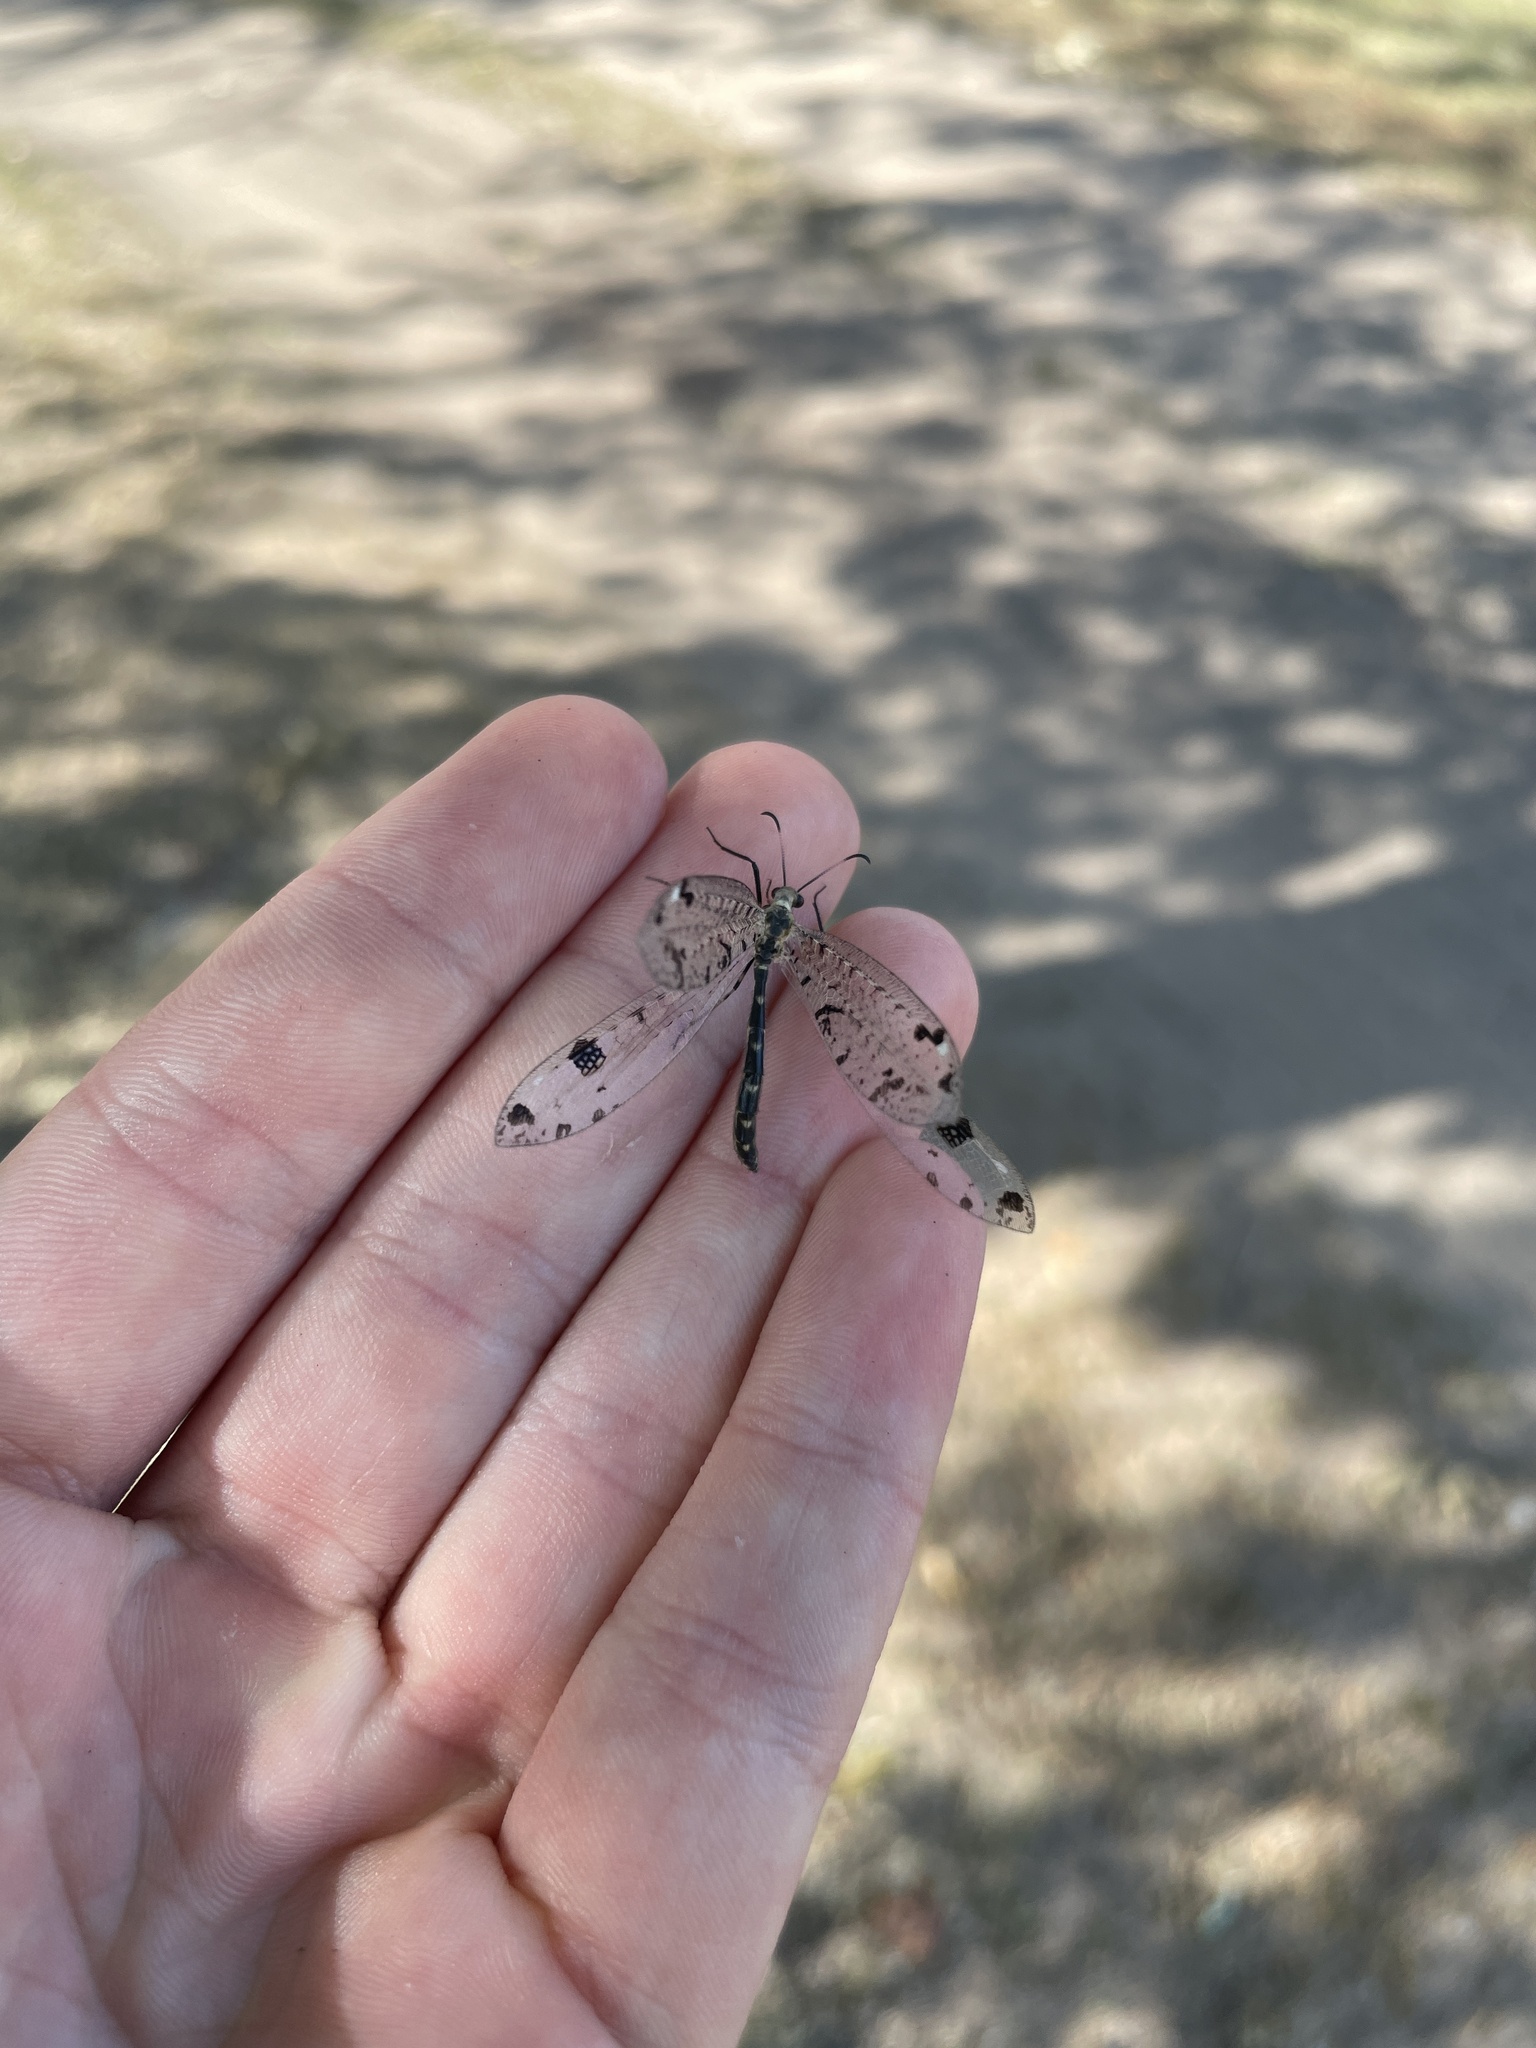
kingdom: Animalia
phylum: Arthropoda
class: Insecta
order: Neuroptera
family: Myrmeleontidae
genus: Dendroleon
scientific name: Dendroleon obsoletus
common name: Eastern spotted-winged antlion
